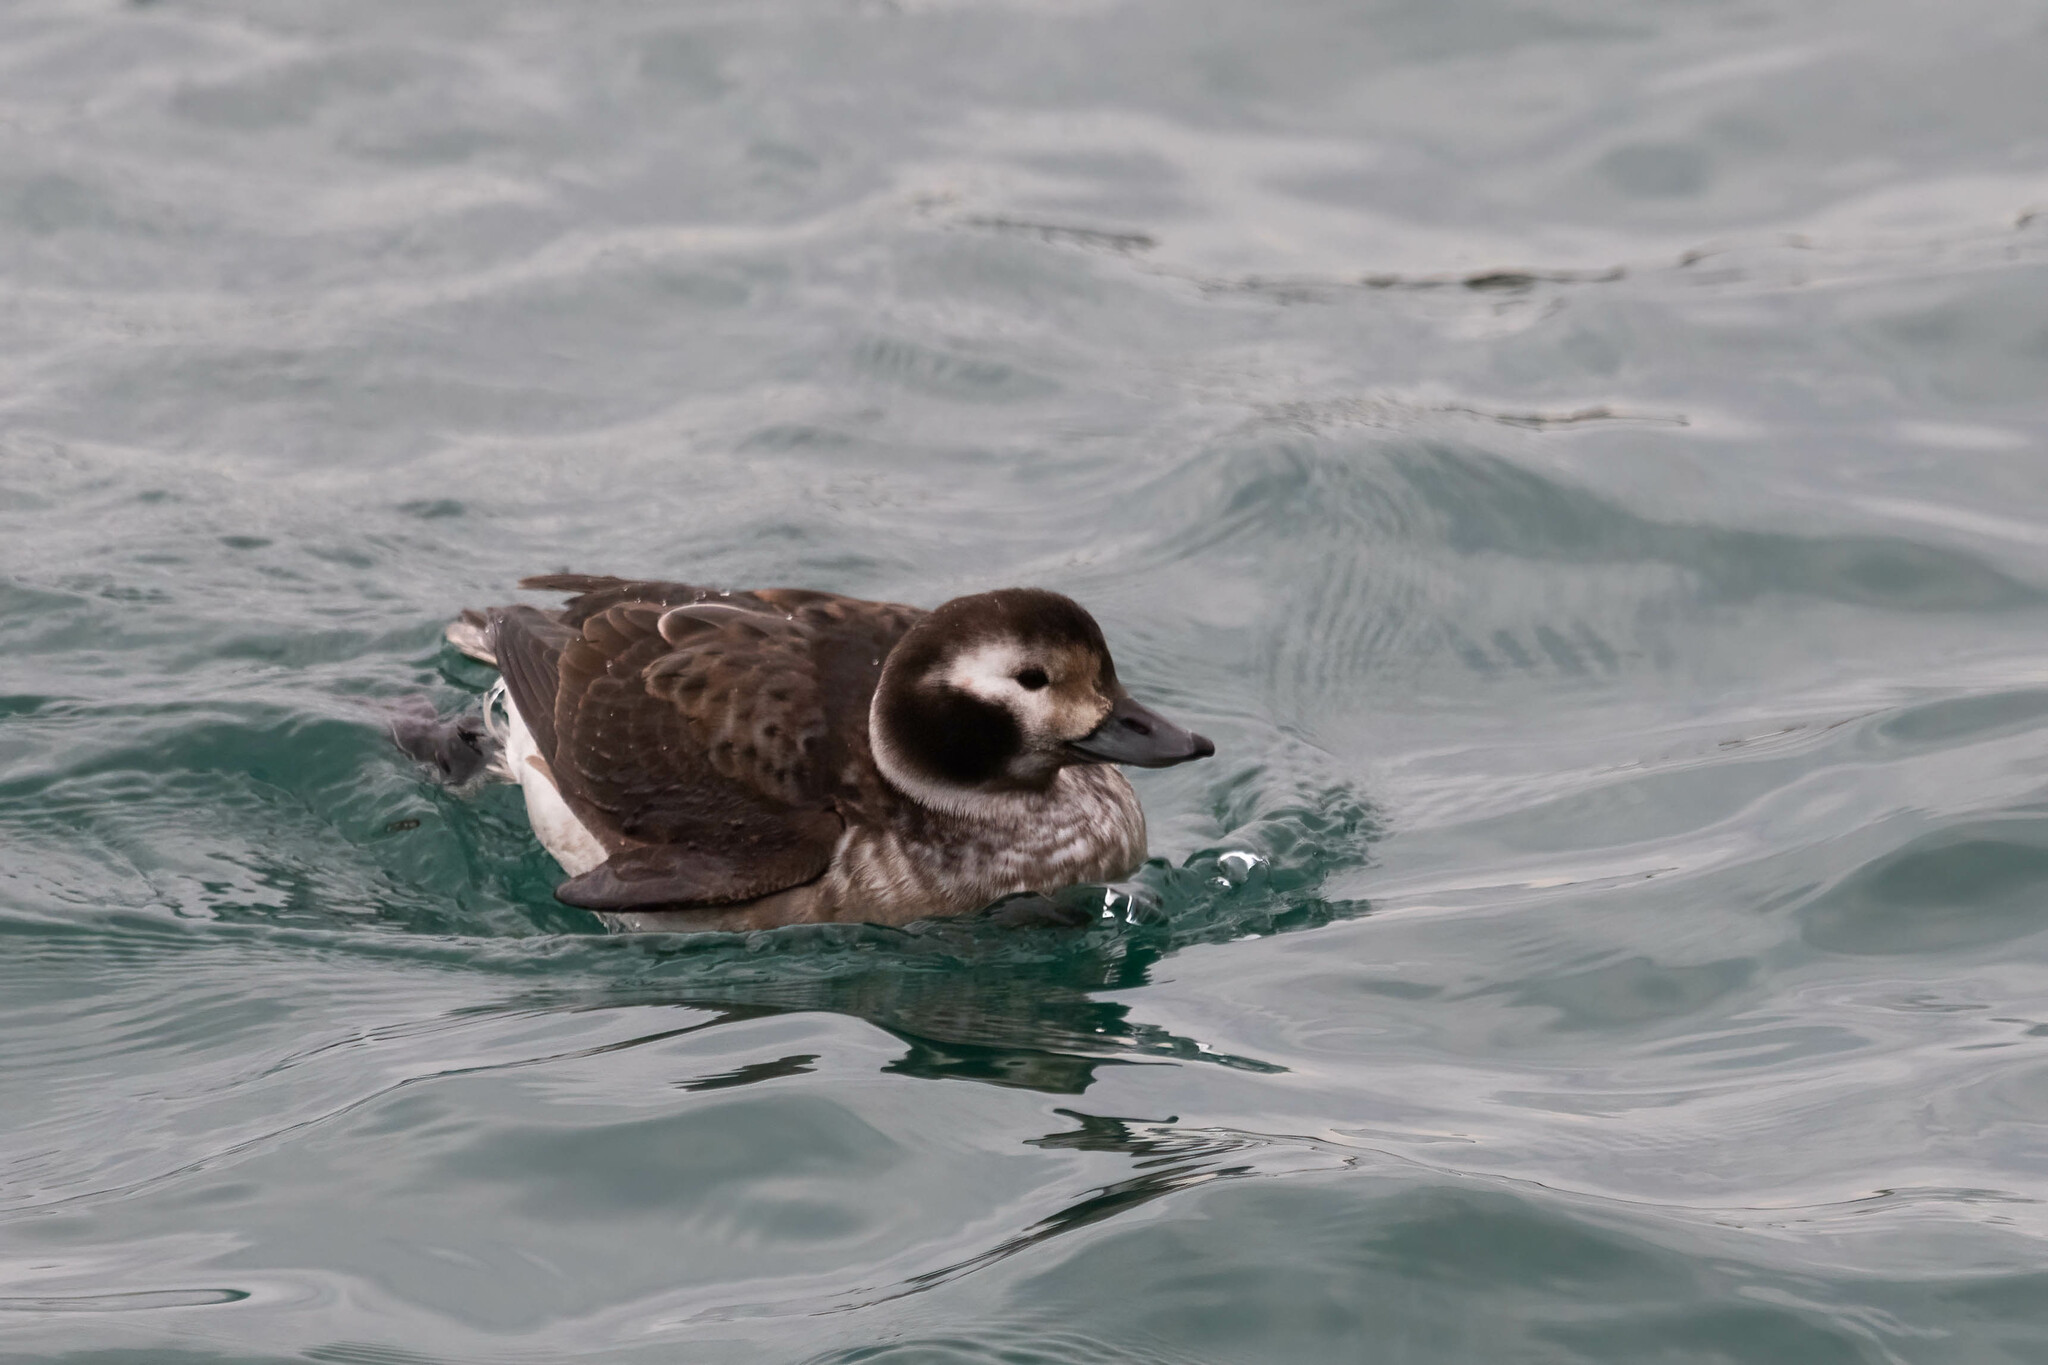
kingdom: Animalia
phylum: Chordata
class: Aves
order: Anseriformes
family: Anatidae
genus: Clangula
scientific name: Clangula hyemalis
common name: Long-tailed duck
